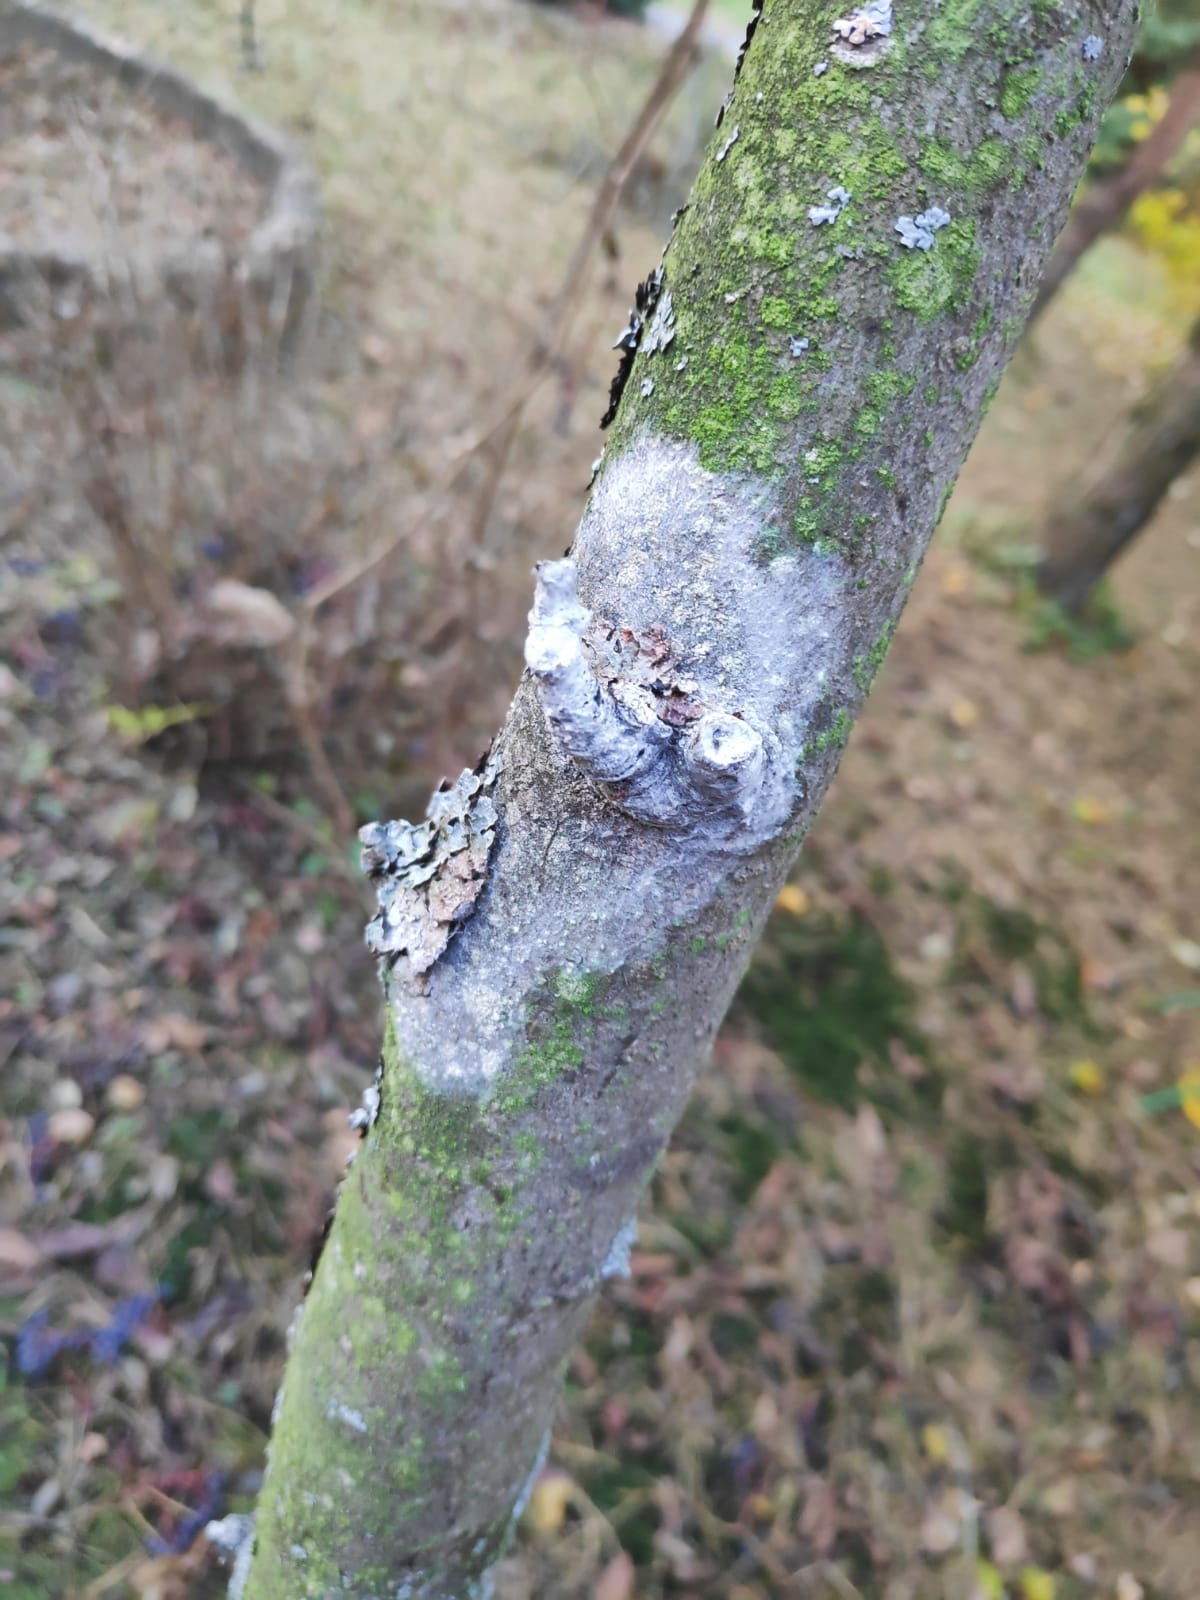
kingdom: Fungi
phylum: Basidiomycota
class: Agaricomycetes
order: Atheliales
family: Atheliaceae
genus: Athelia
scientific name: Athelia arachnoidea
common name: Candelabra duster
